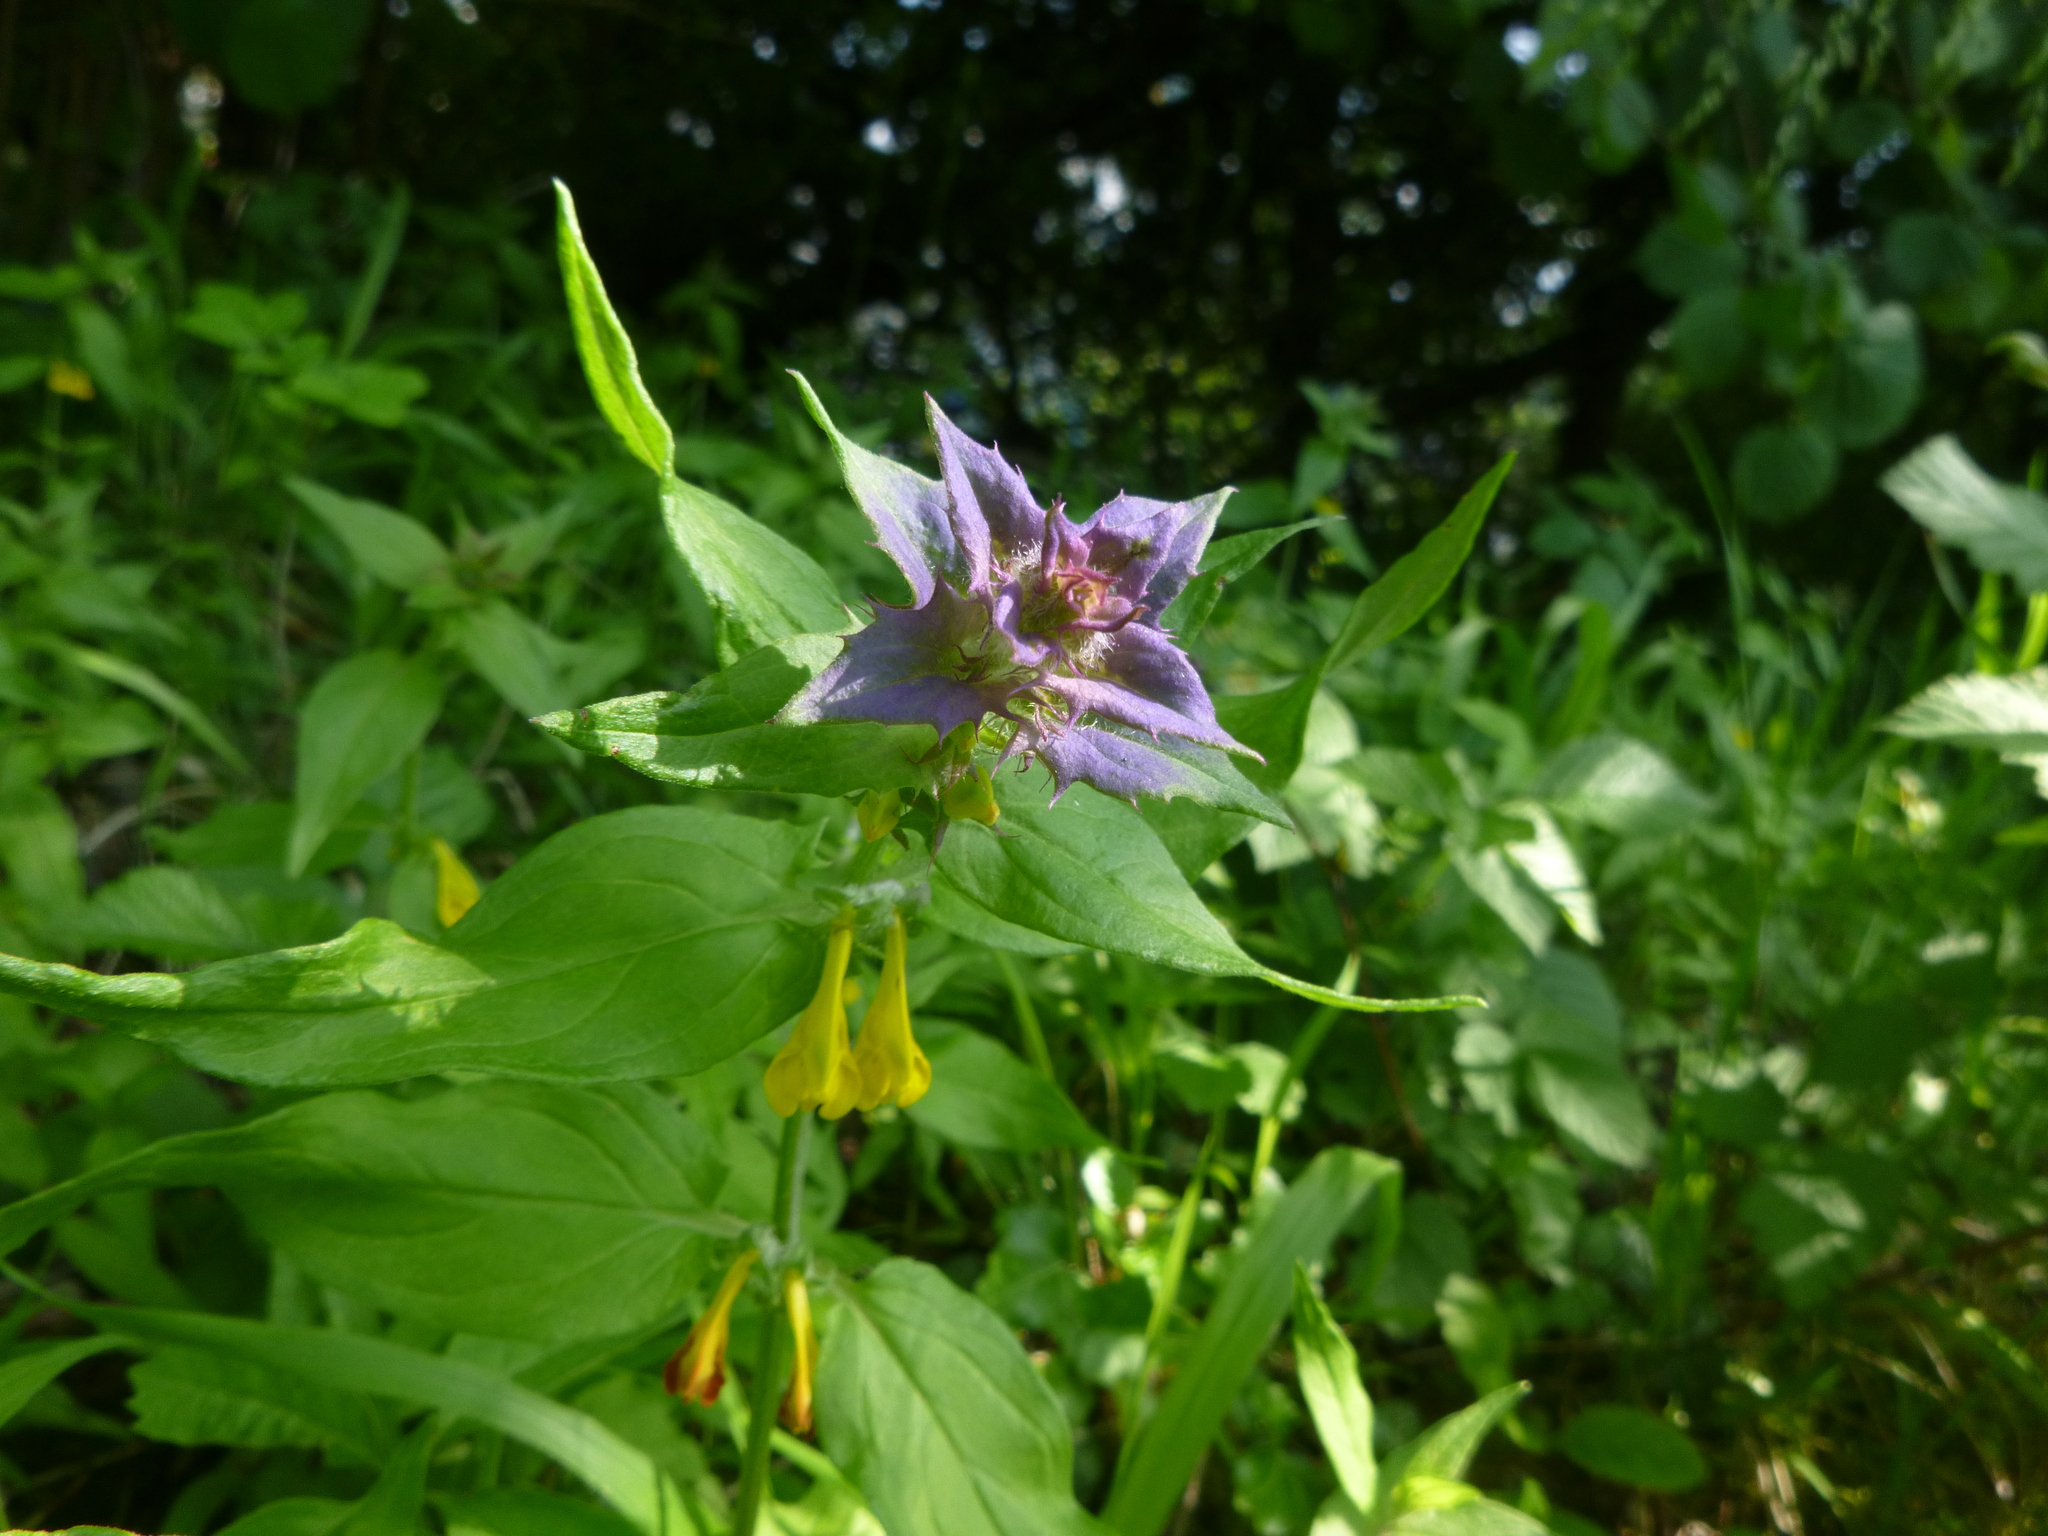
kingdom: Plantae
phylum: Tracheophyta
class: Magnoliopsida
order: Lamiales
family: Orobanchaceae
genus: Melampyrum
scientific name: Melampyrum nemorosum
